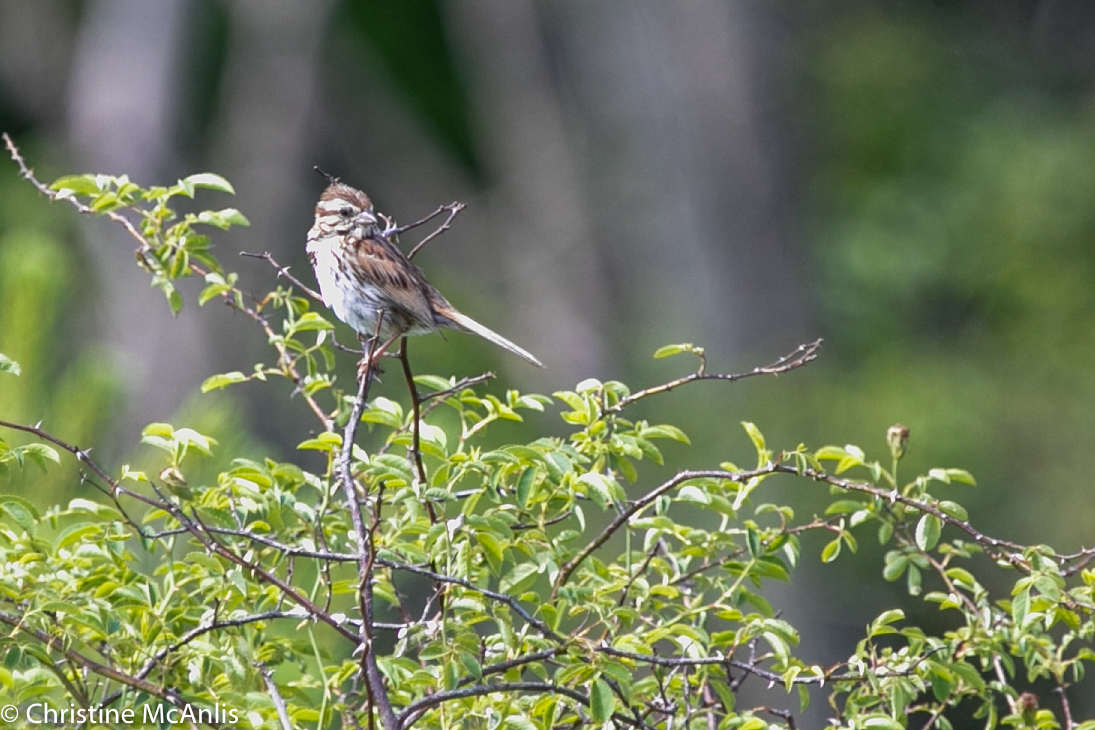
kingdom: Animalia
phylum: Chordata
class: Aves
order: Passeriformes
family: Passerellidae
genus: Melospiza
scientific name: Melospiza melodia
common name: Song sparrow
